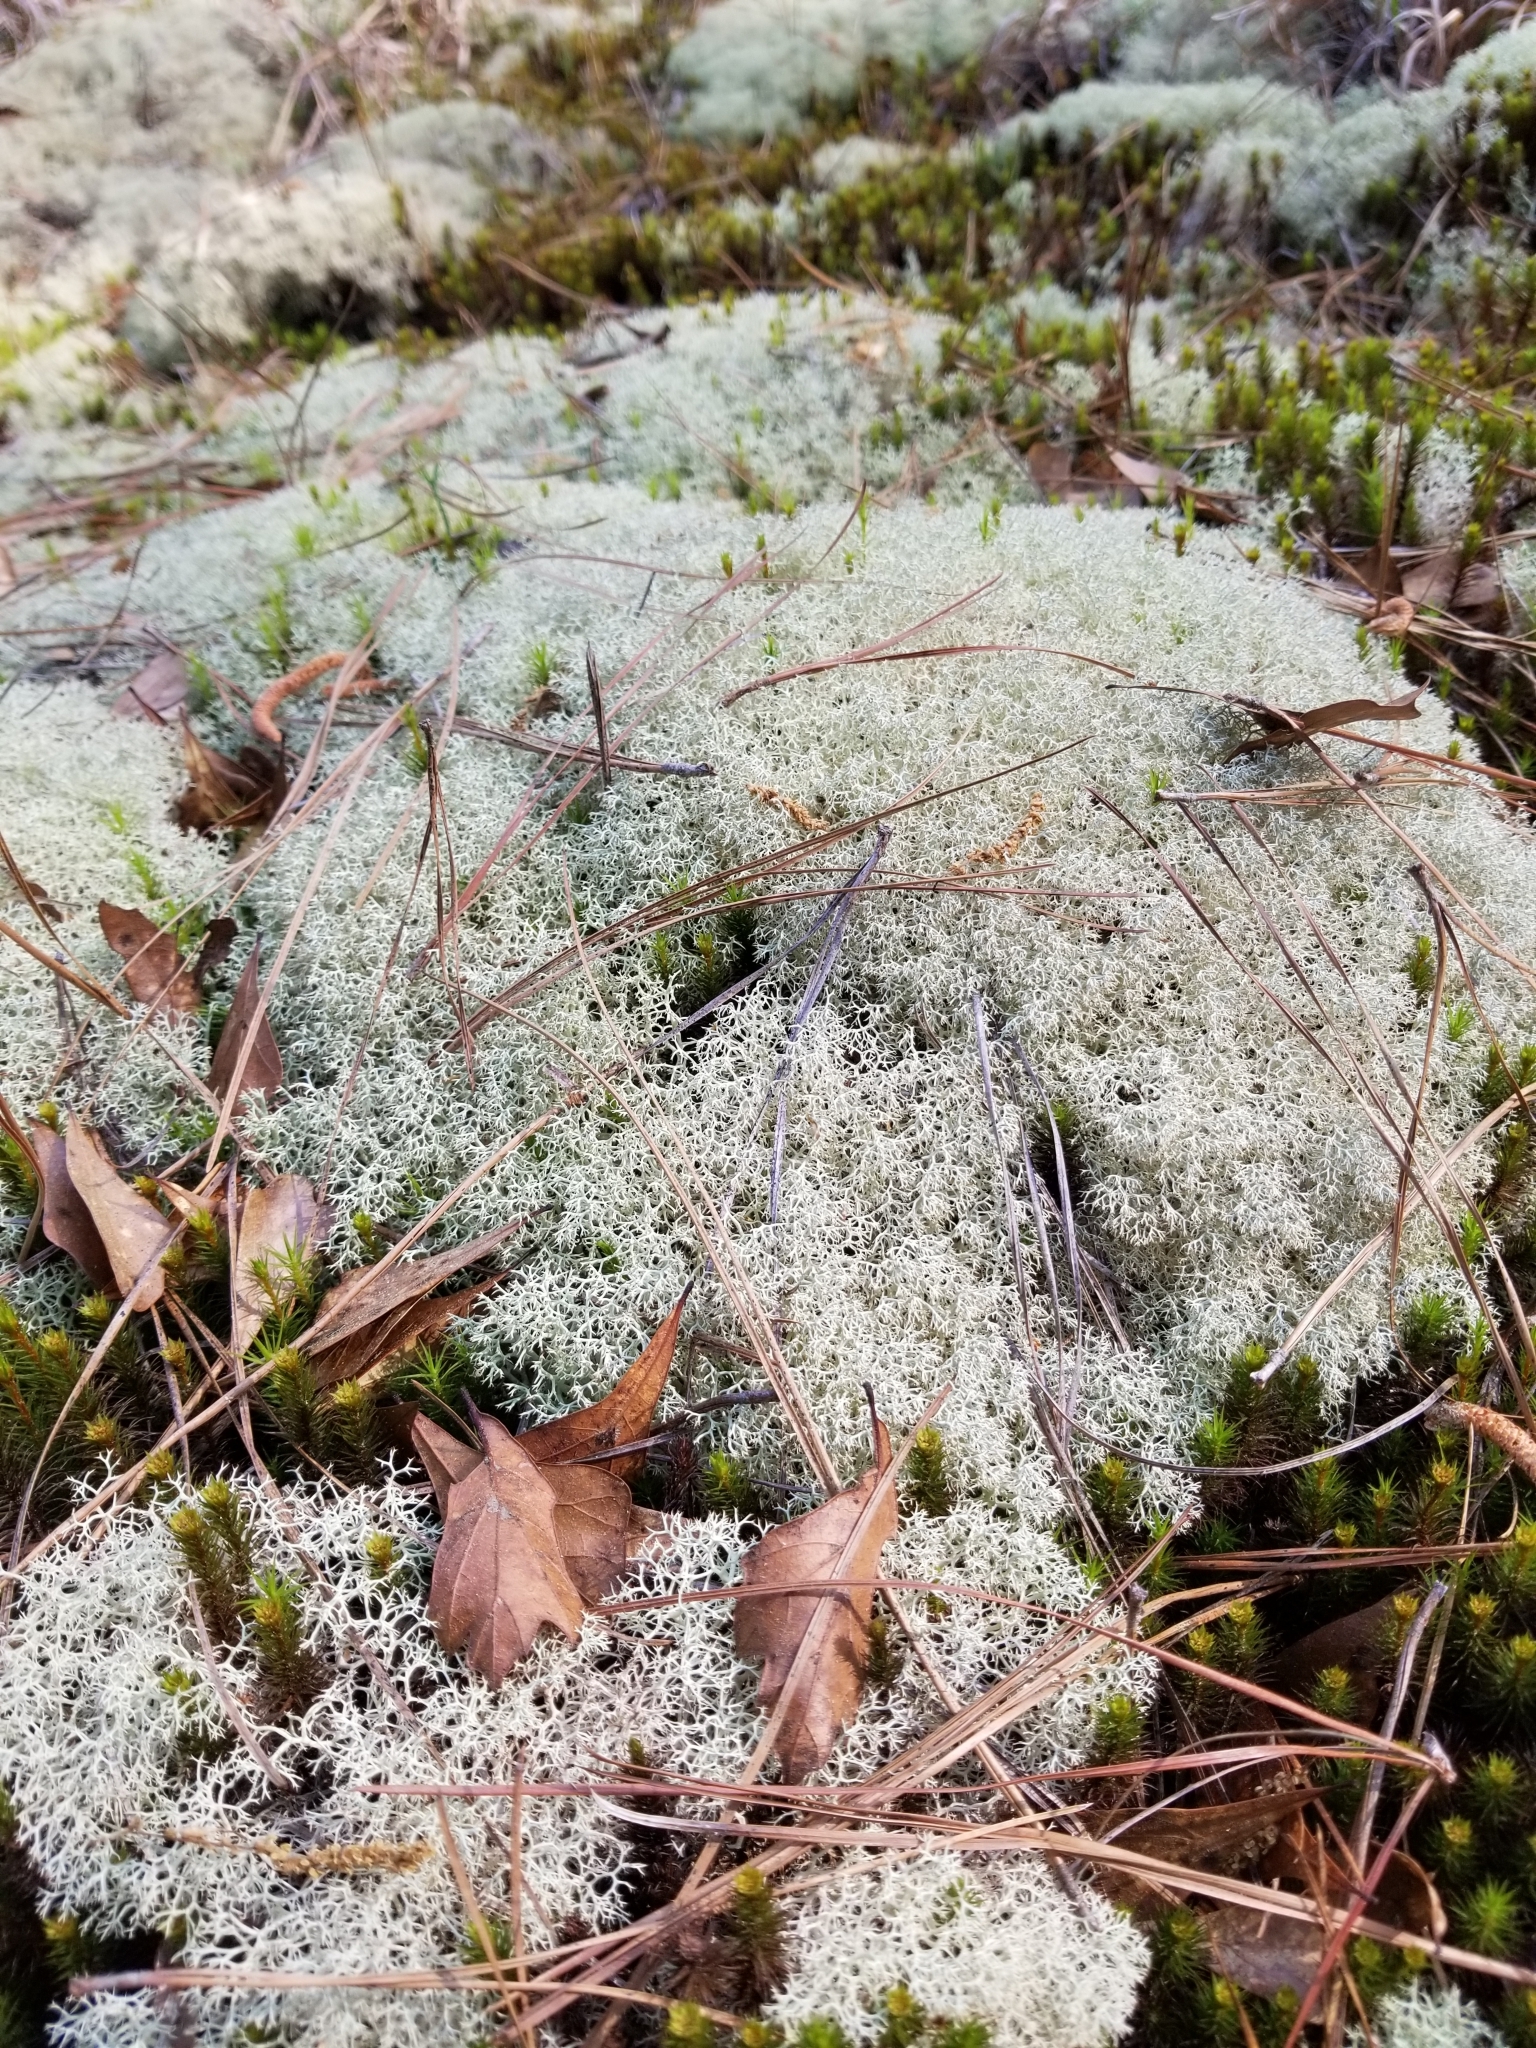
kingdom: Fungi
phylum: Ascomycota
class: Lecanoromycetes
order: Lecanorales
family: Cladoniaceae
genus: Cladonia
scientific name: Cladonia subtenuis
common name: Dixie reindeer lichen
